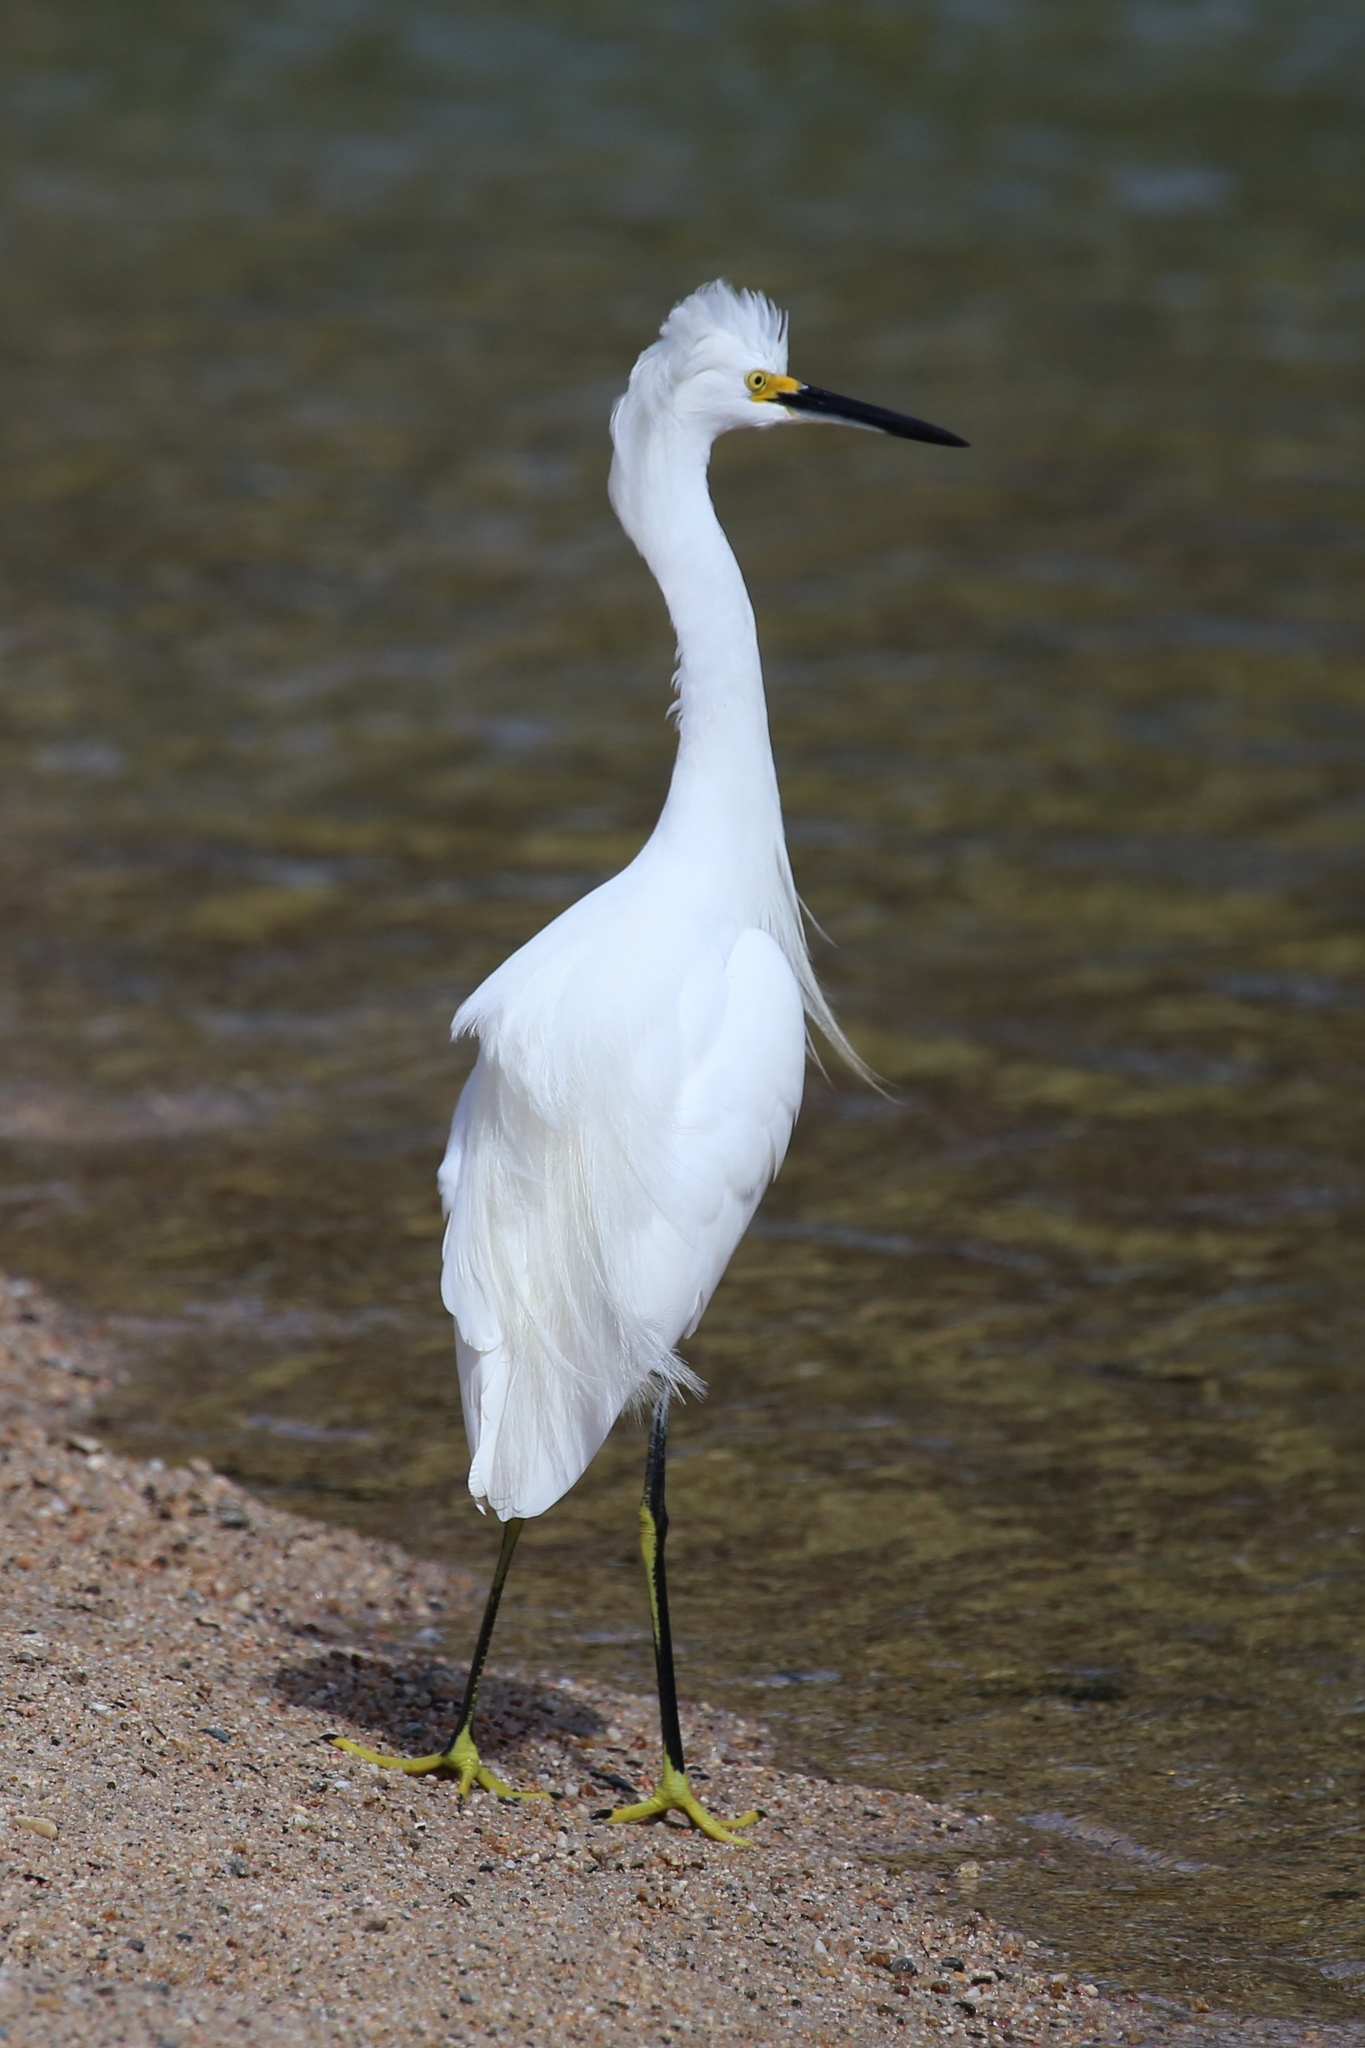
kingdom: Animalia
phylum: Chordata
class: Aves
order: Pelecaniformes
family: Ardeidae
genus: Egretta
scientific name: Egretta thula
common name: Snowy egret
